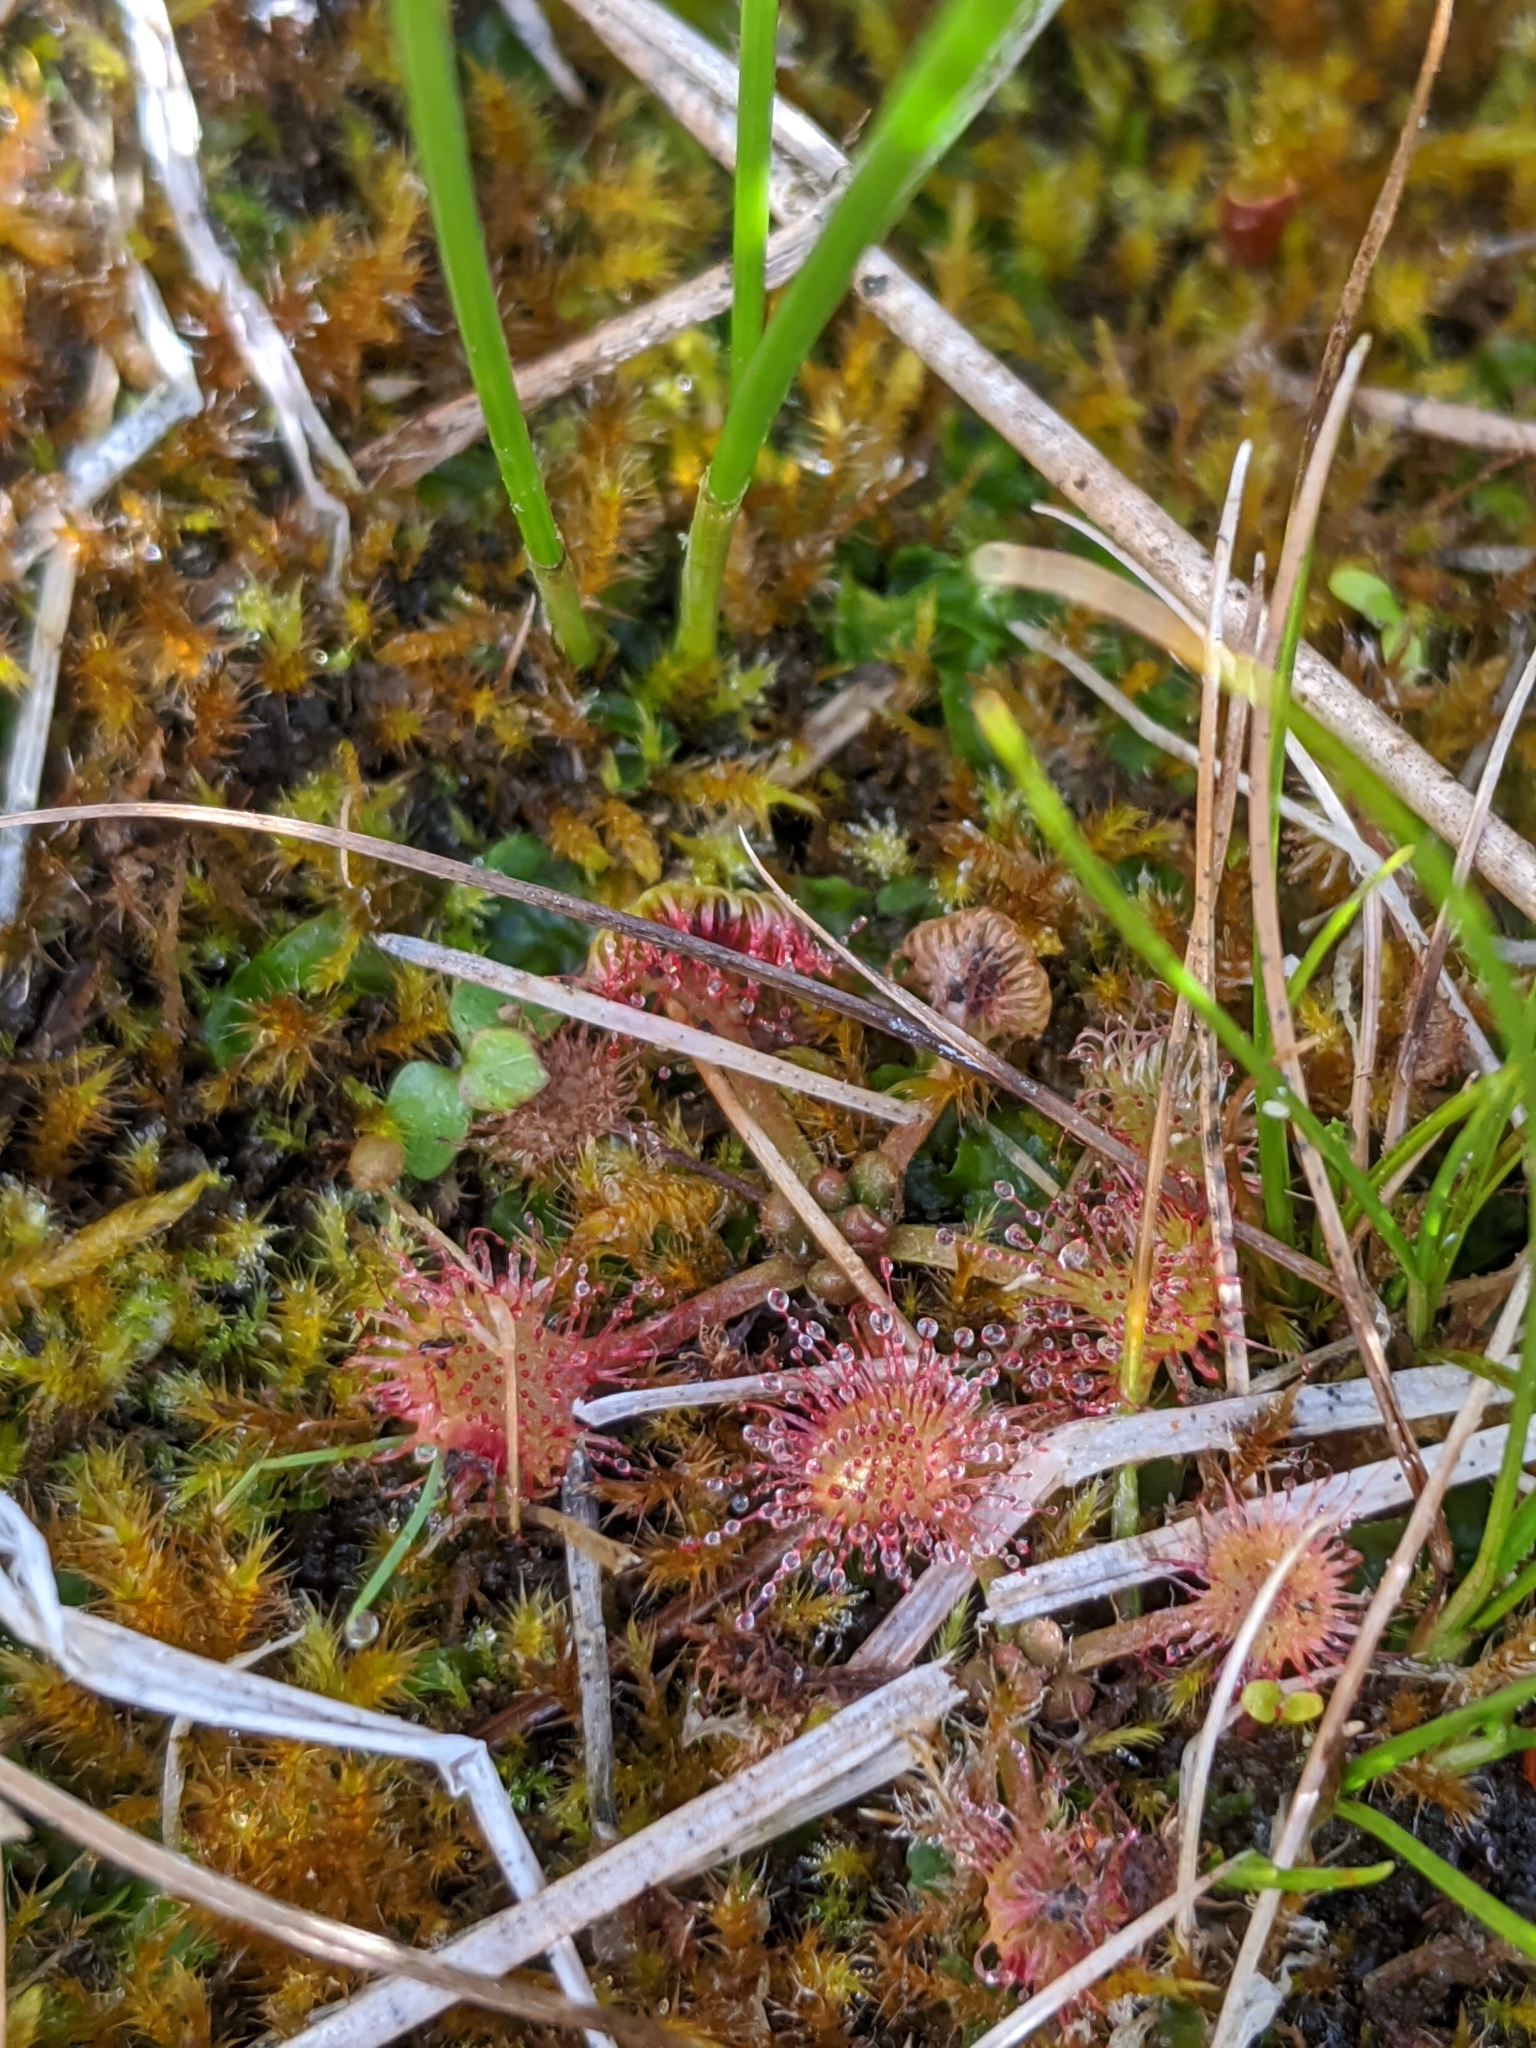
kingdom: Plantae
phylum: Tracheophyta
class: Magnoliopsida
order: Caryophyllales
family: Droseraceae
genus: Drosera
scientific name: Drosera rotundifolia
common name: Round-leaved sundew
